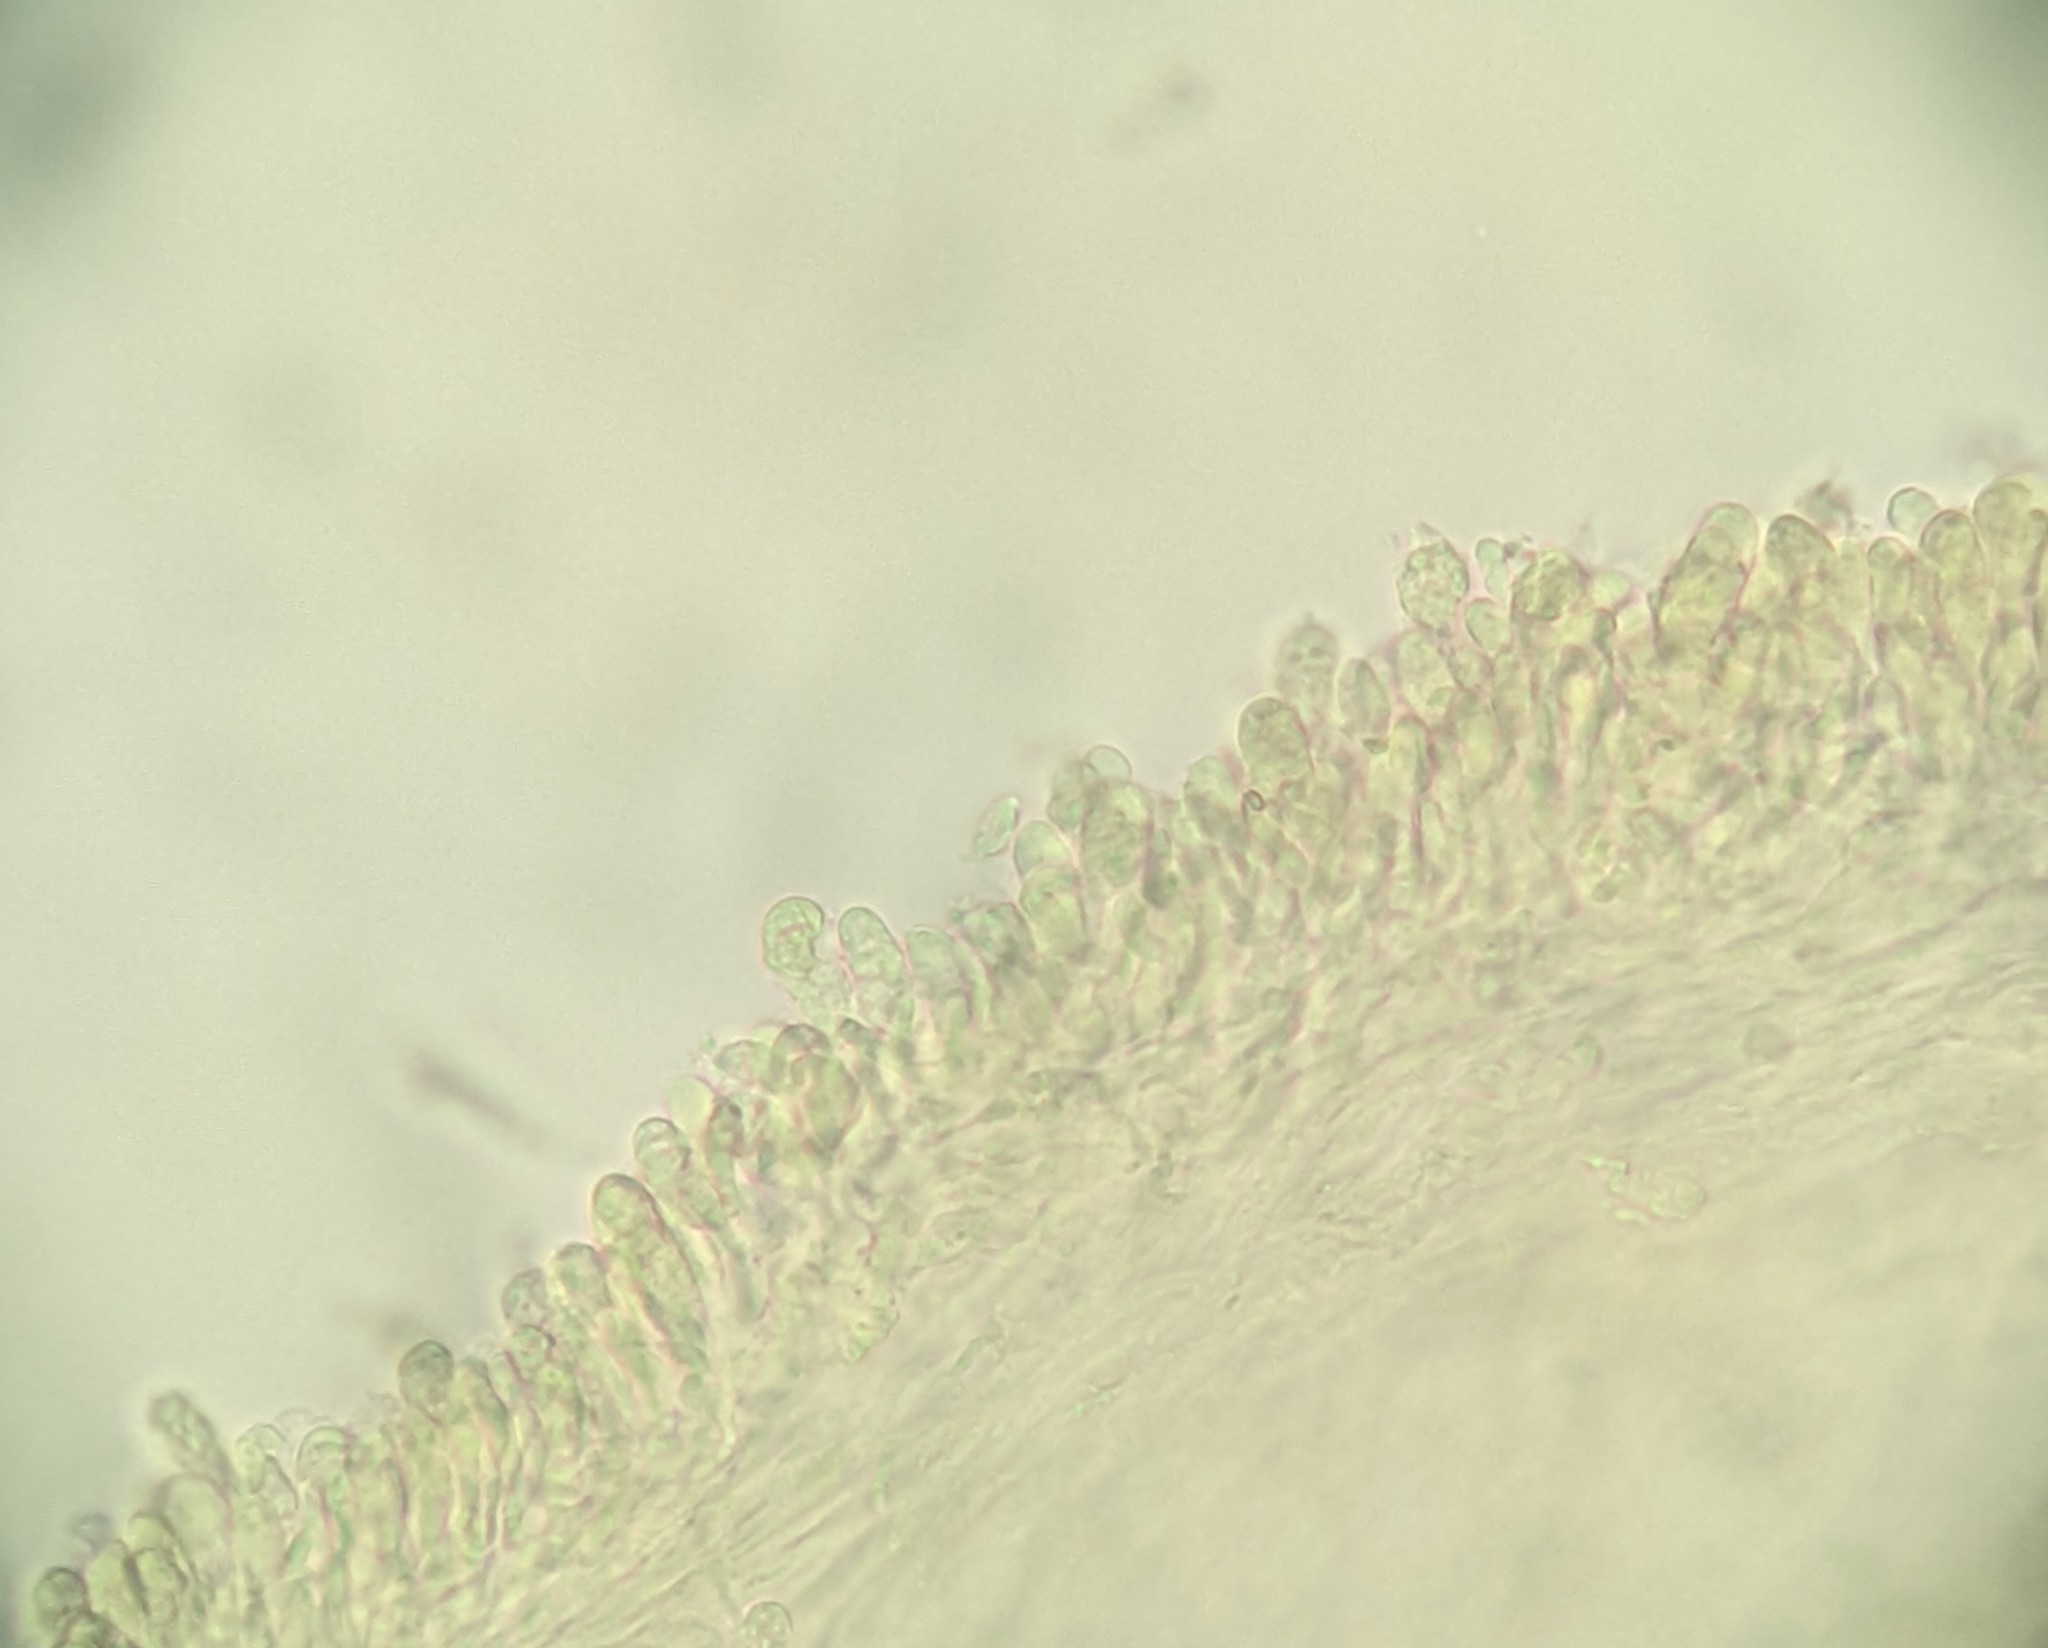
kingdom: Fungi
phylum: Basidiomycota
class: Agaricomycetes
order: Agaricales
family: Lyophyllaceae
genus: Lyophyllum
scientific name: Lyophyllum decastes
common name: Clustered domecap
